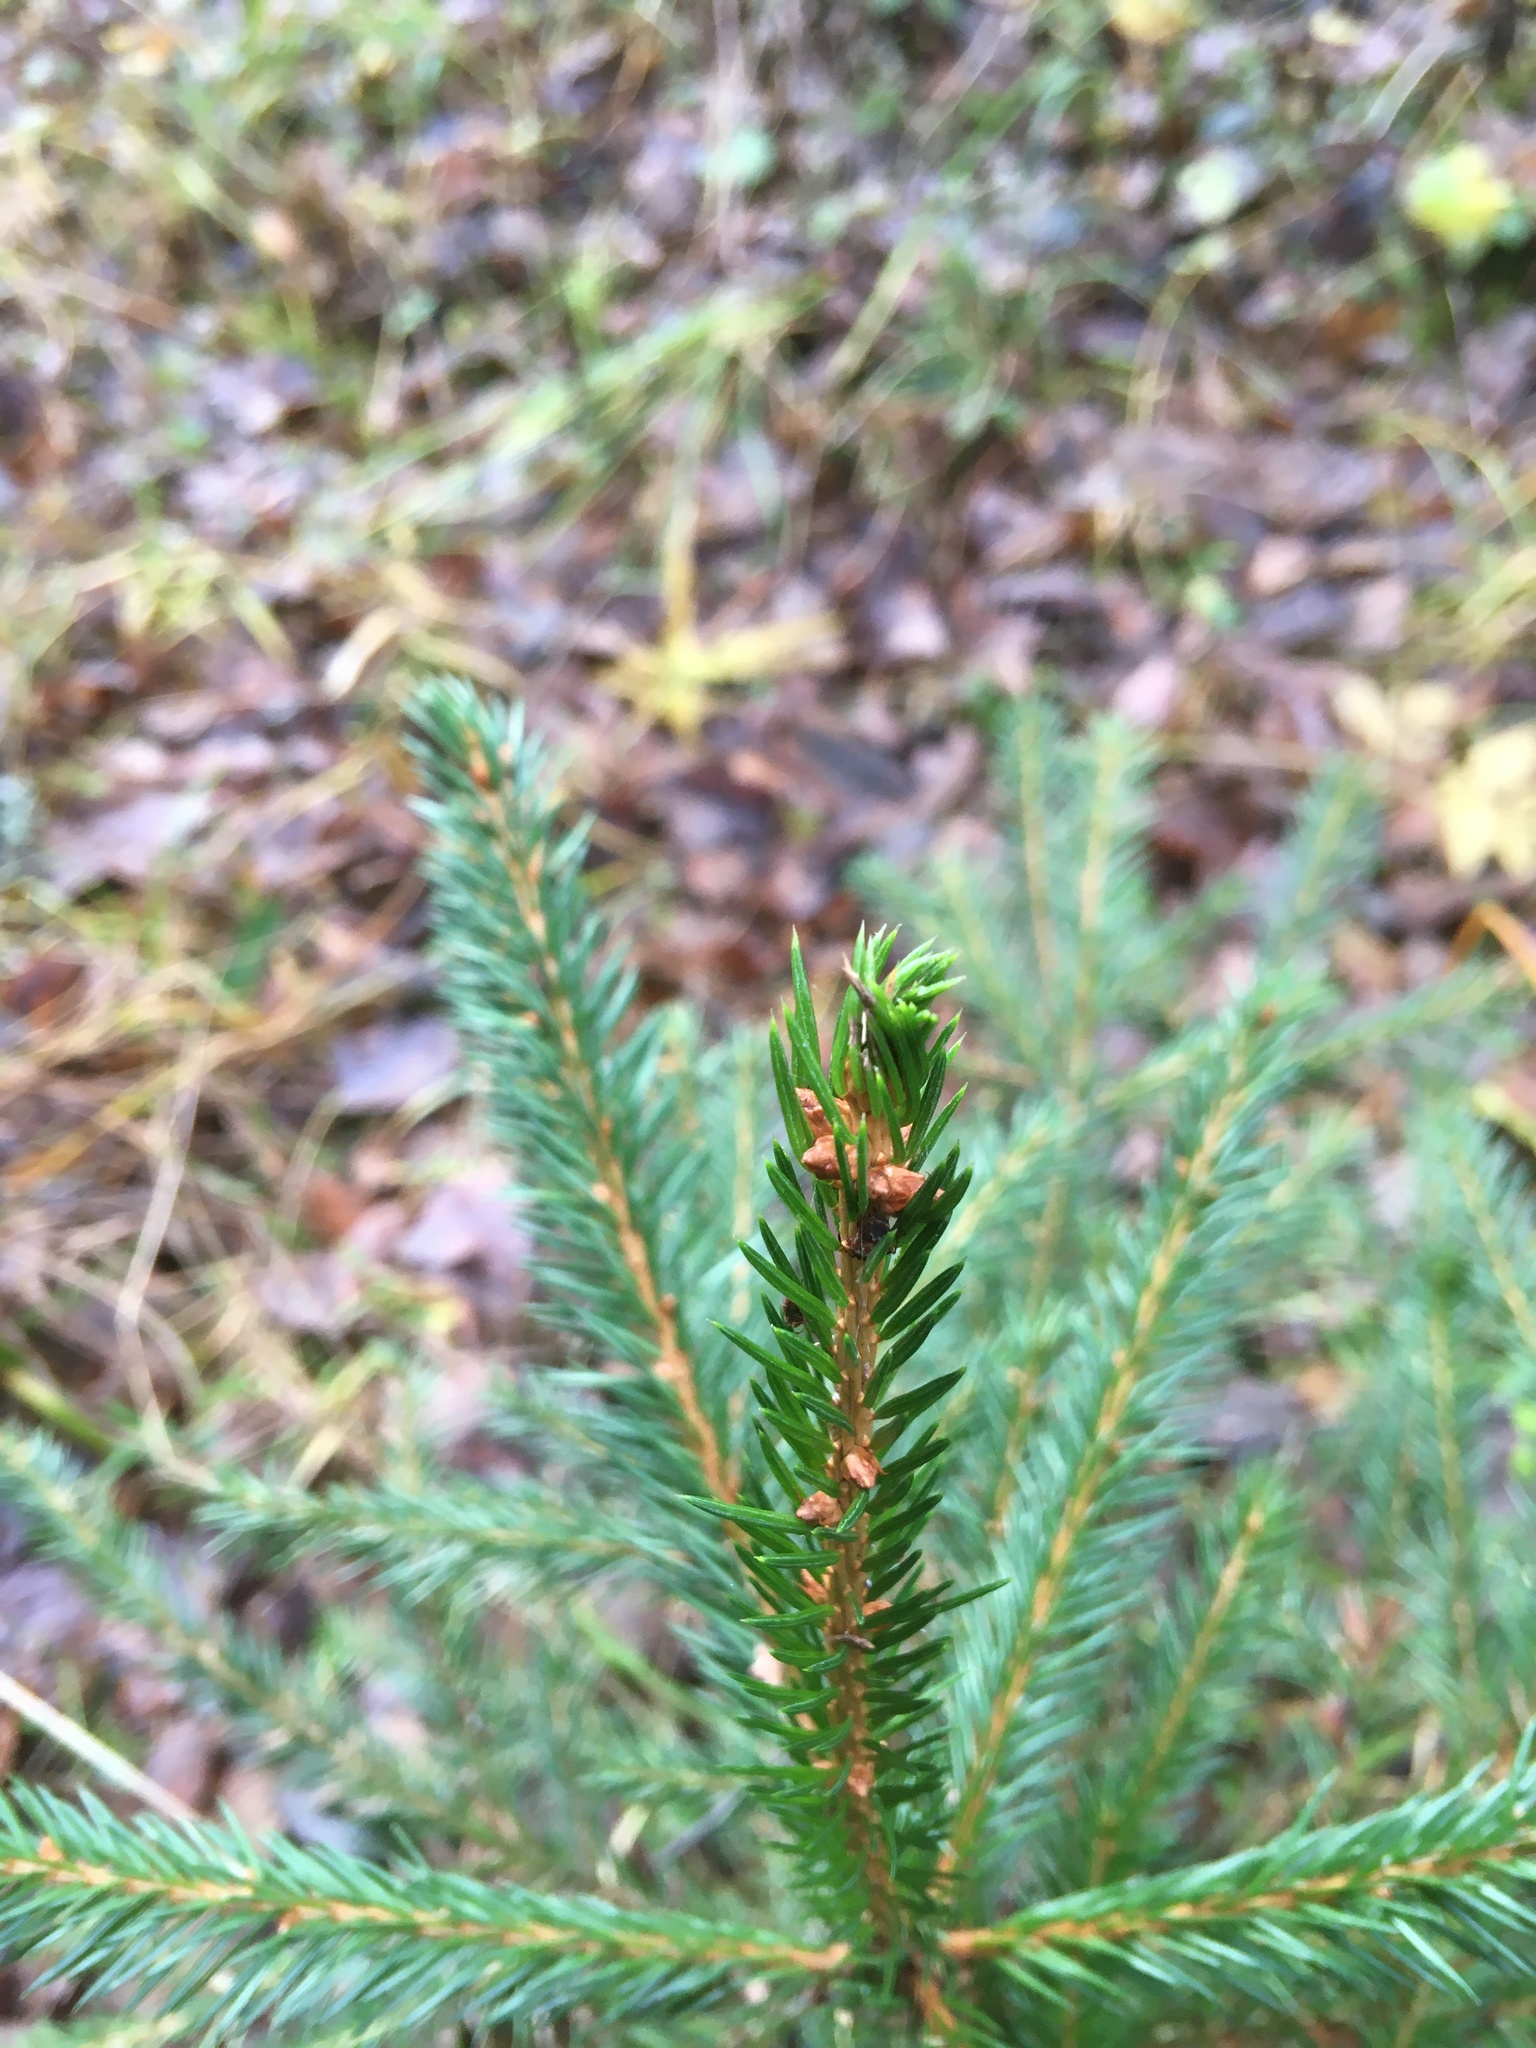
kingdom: Plantae
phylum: Tracheophyta
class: Pinopsida
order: Pinales
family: Pinaceae
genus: Picea
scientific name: Picea abies
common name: Norway spruce
